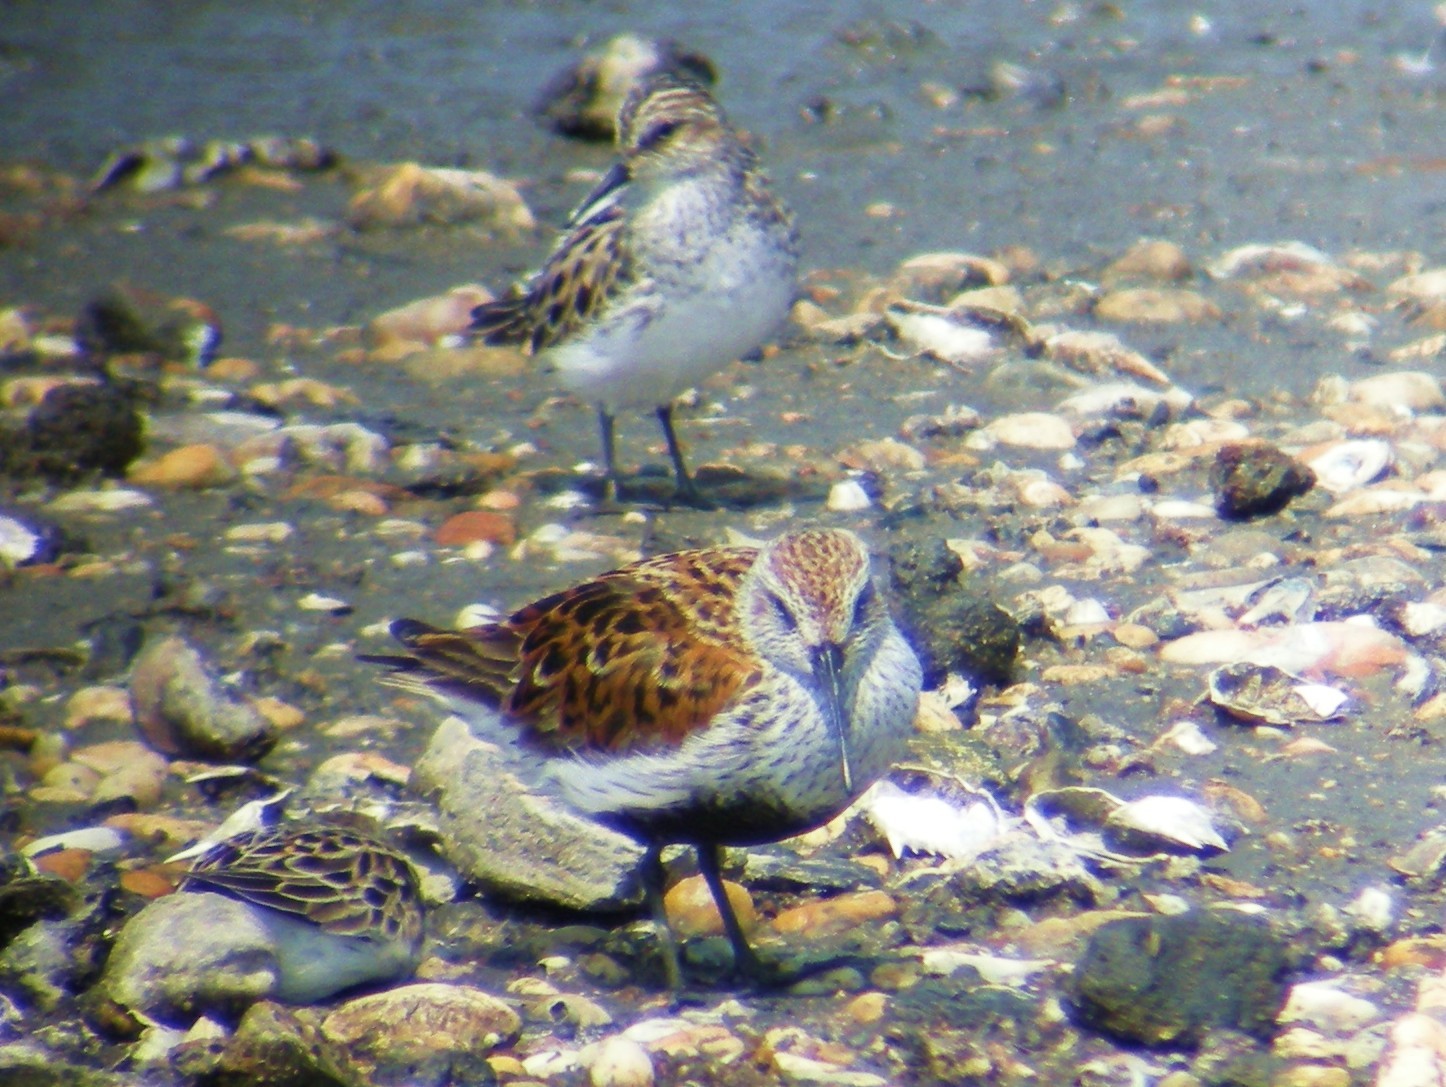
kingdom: Animalia
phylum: Chordata
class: Aves
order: Charadriiformes
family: Scolopacidae
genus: Calidris
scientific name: Calidris alpina
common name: Dunlin
